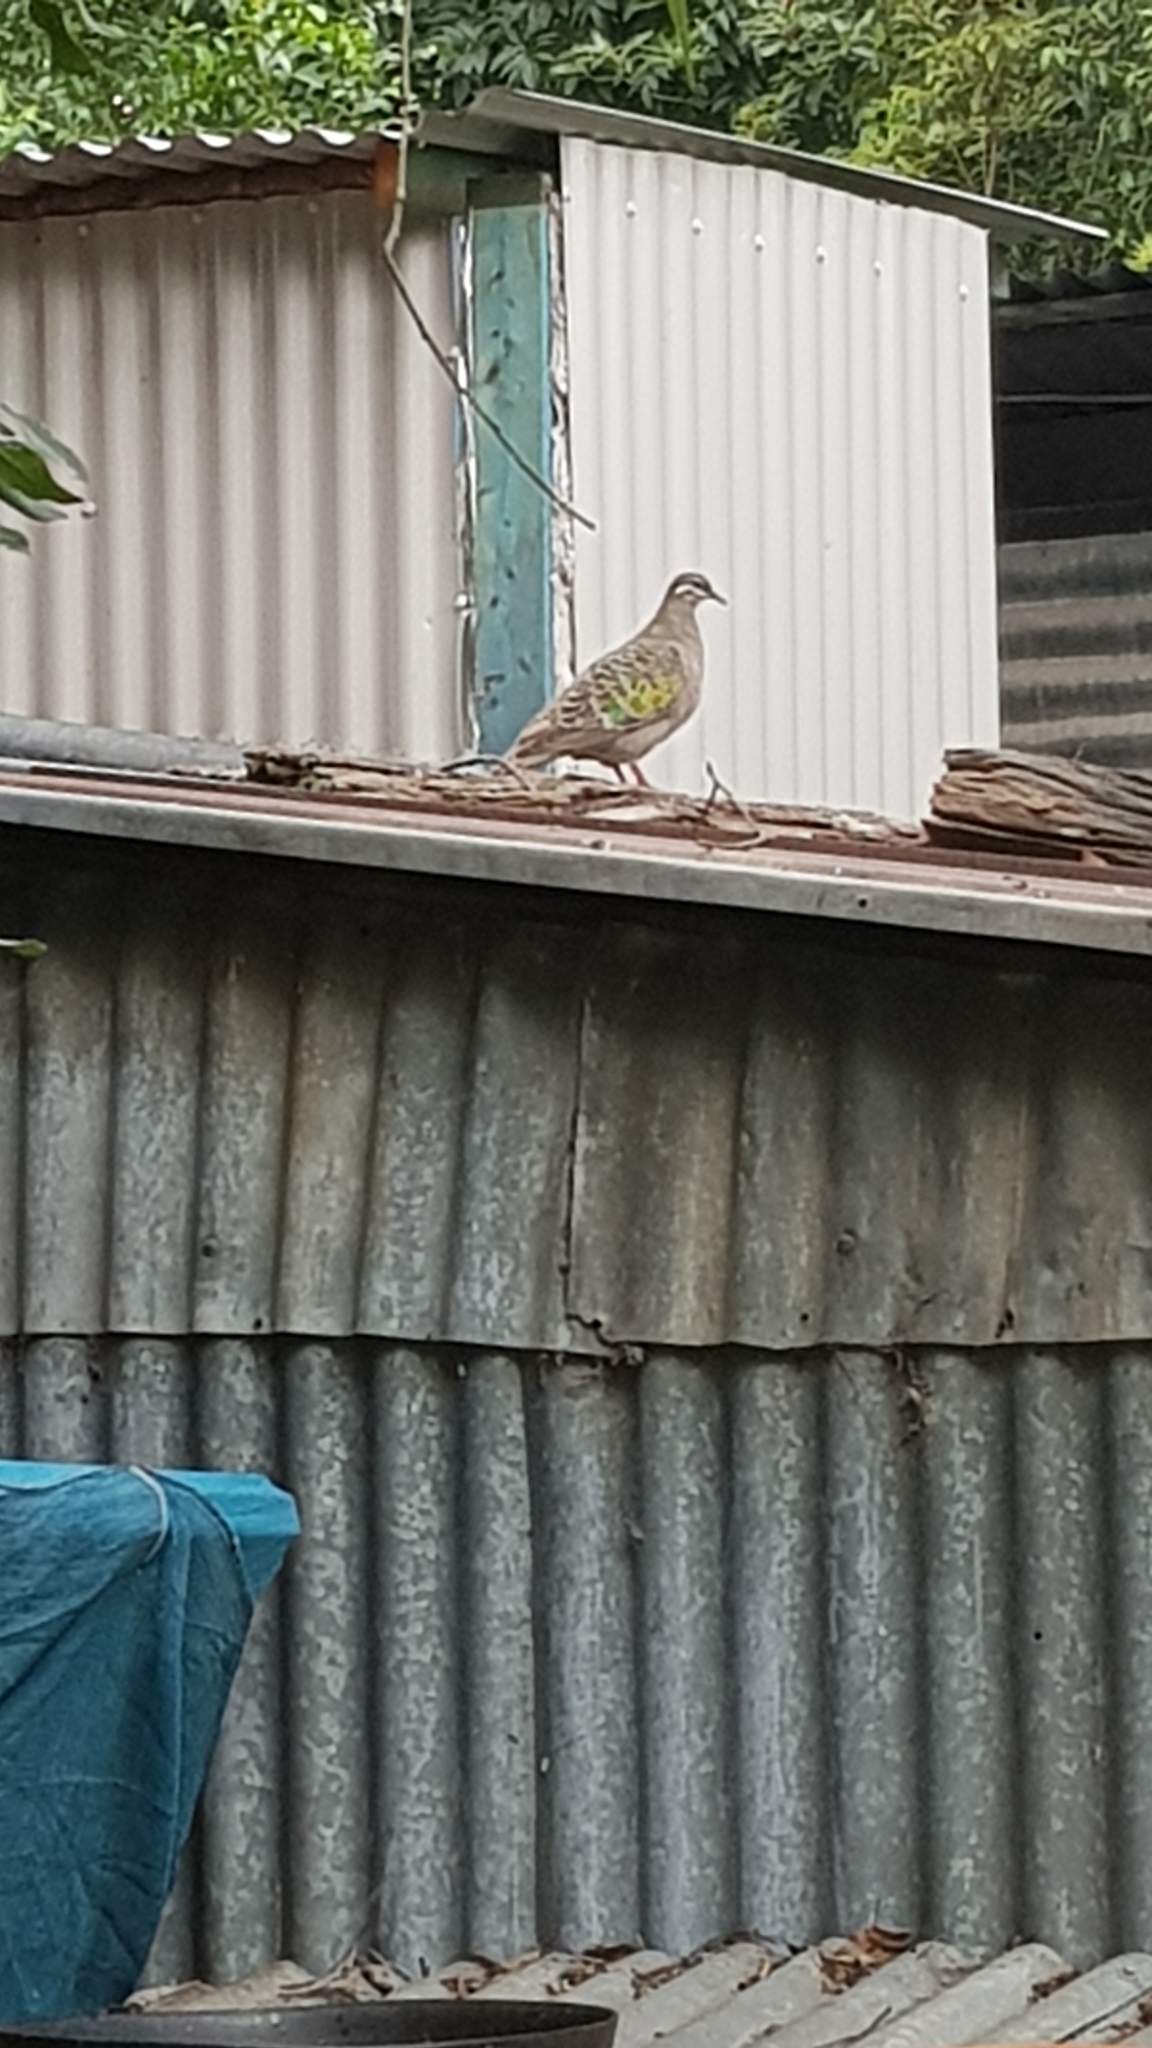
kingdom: Animalia
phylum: Chordata
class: Aves
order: Columbiformes
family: Columbidae
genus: Phaps
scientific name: Phaps chalcoptera
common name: Common bronzewing
